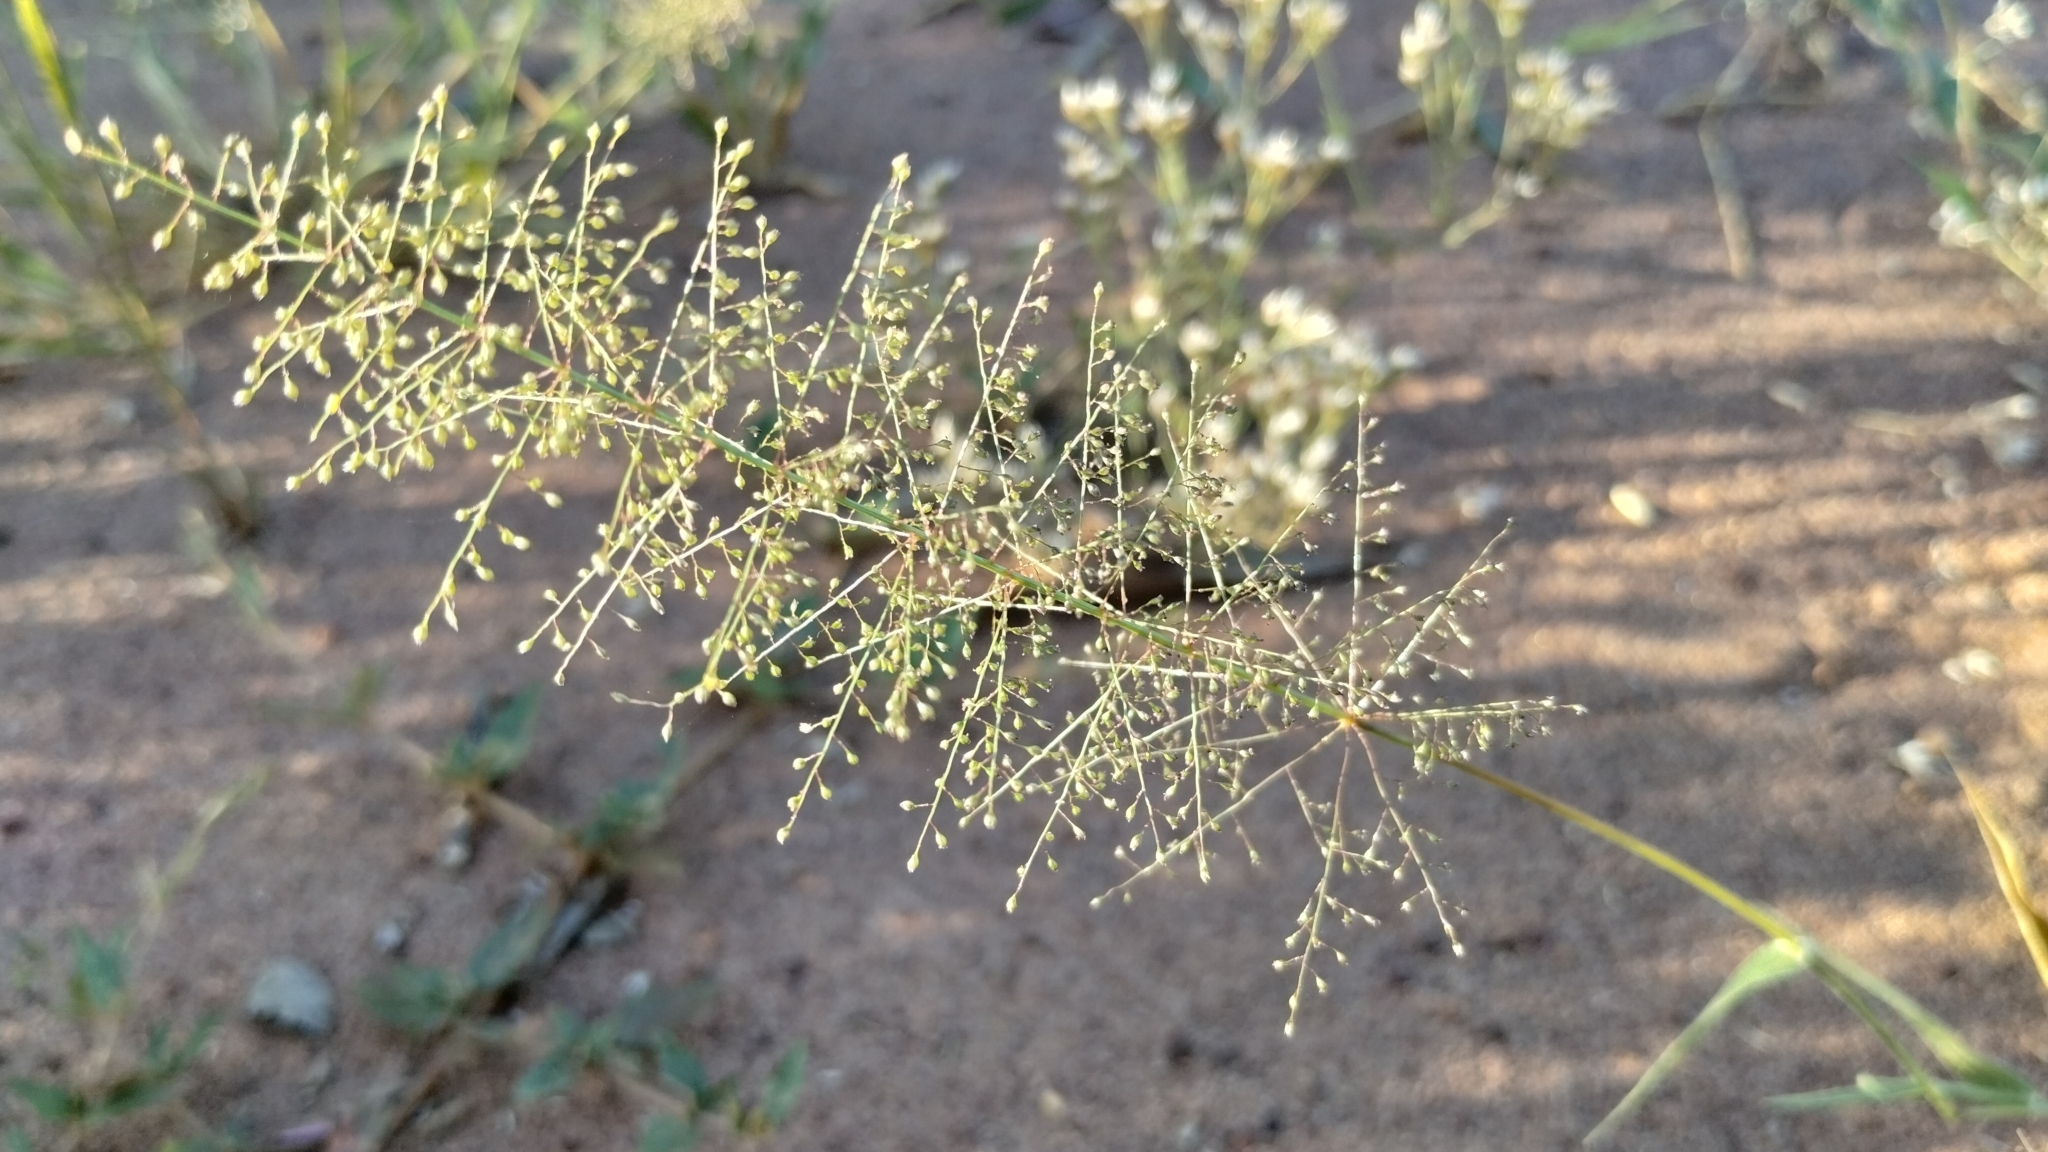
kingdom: Plantae
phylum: Tracheophyta
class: Liliopsida
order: Poales
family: Poaceae
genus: Sporobolus
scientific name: Sporobolus australasicus
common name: Australian dropseed
